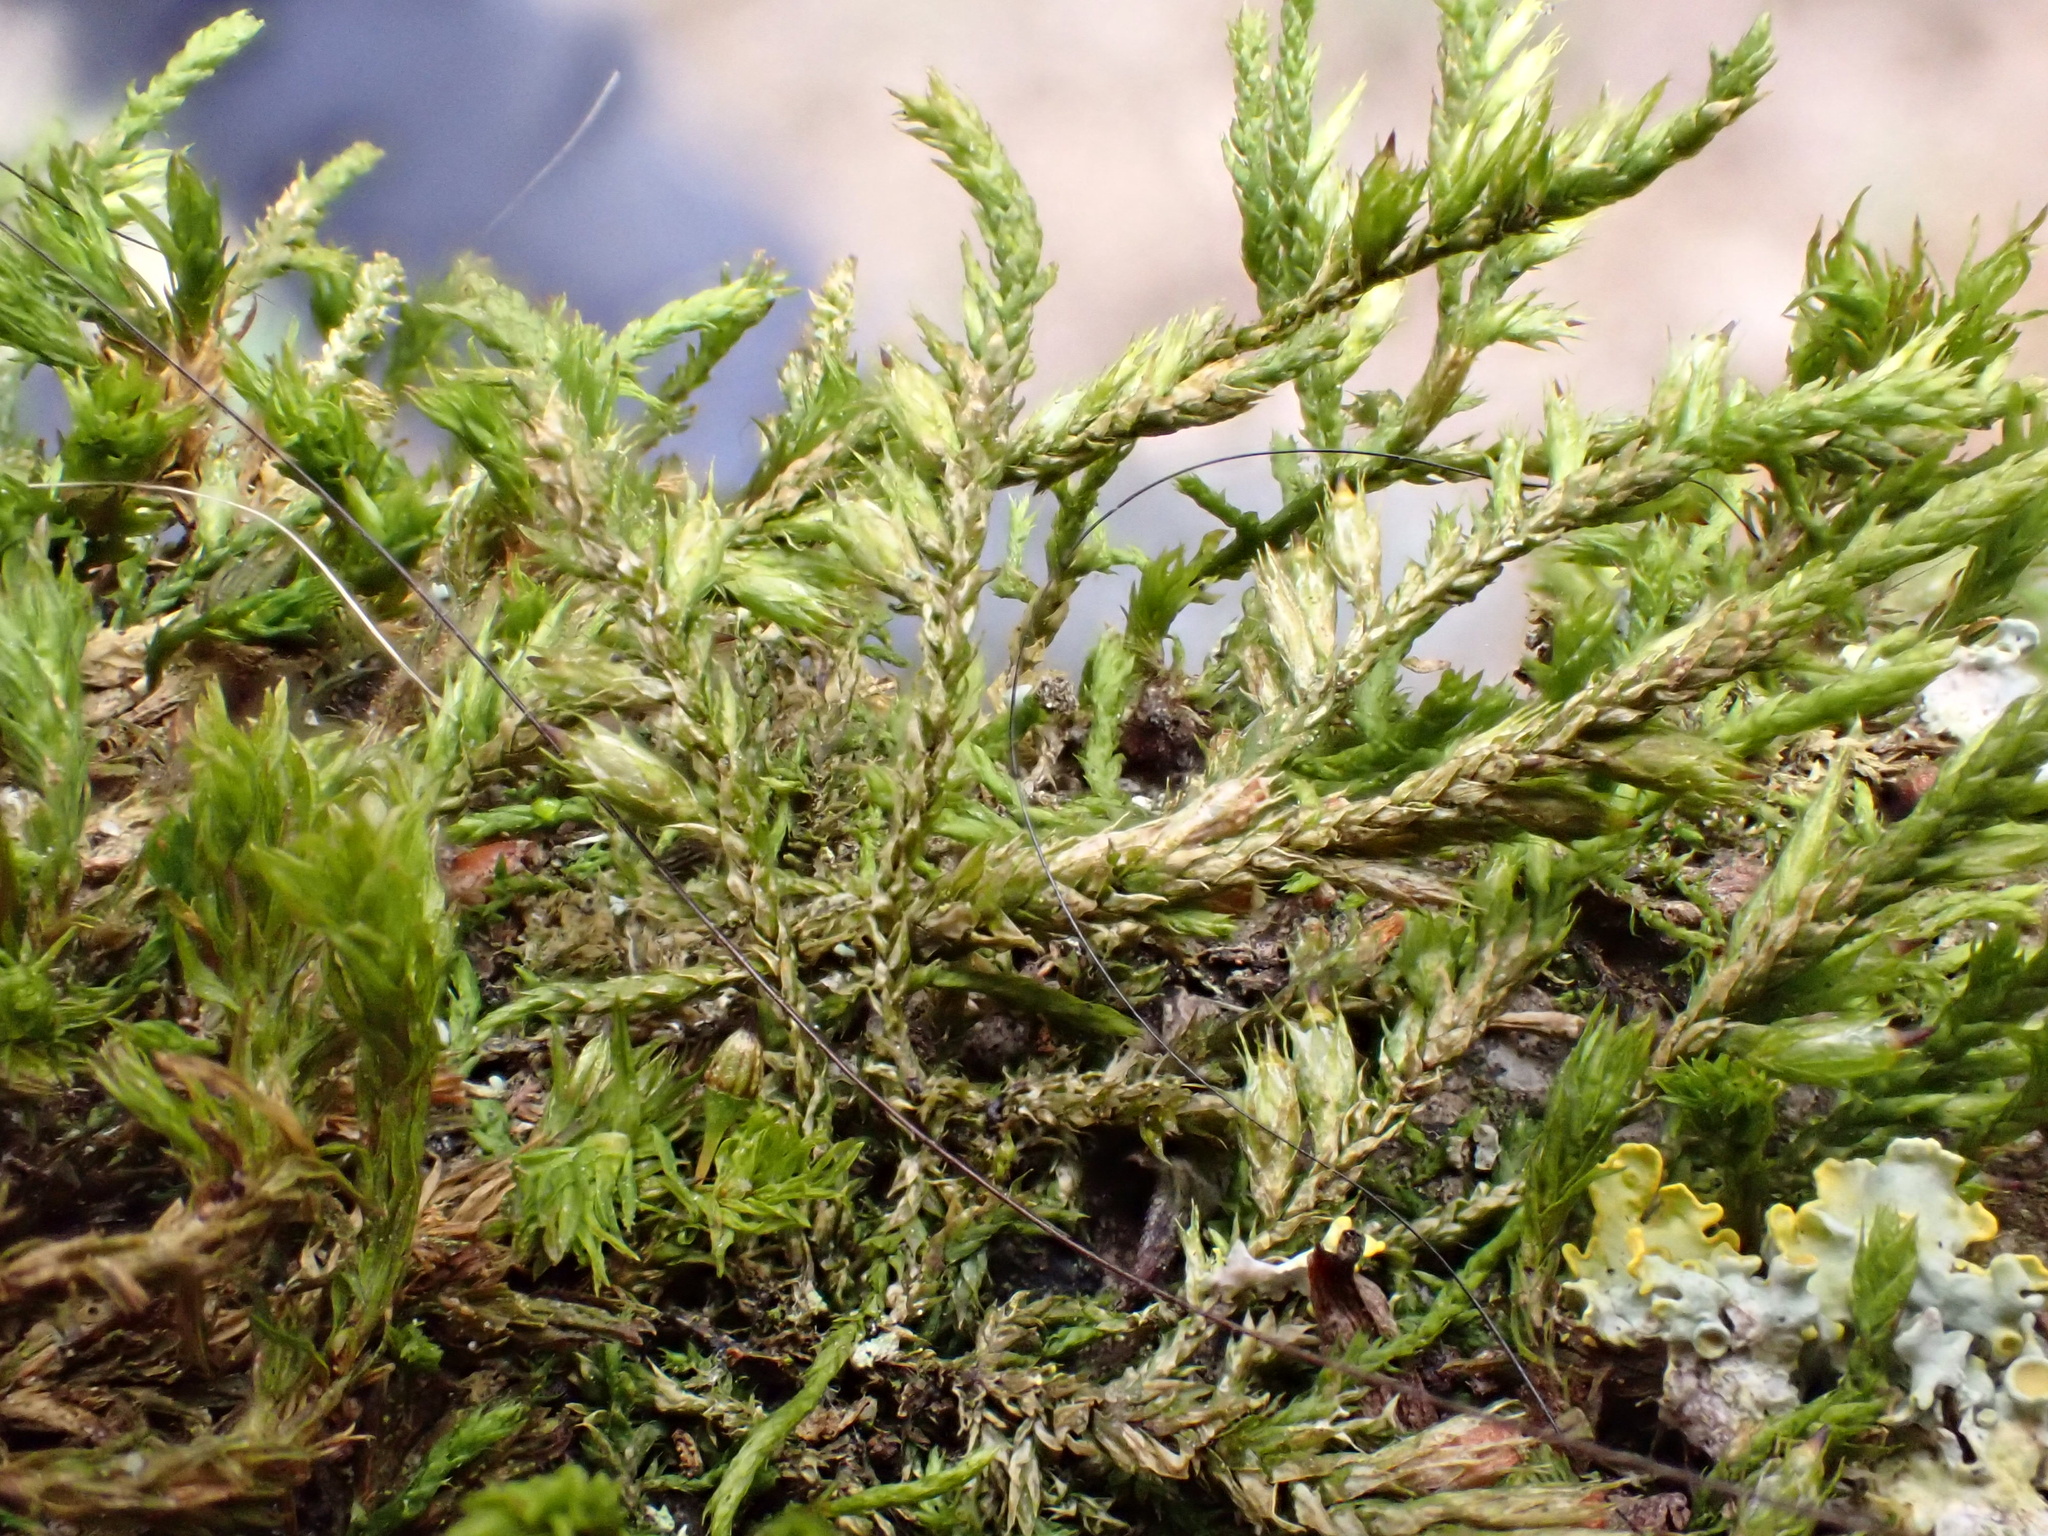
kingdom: Plantae
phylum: Bryophyta
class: Bryopsida
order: Hypnales
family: Cryphaeaceae
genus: Cryphaea
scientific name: Cryphaea heteromalla
